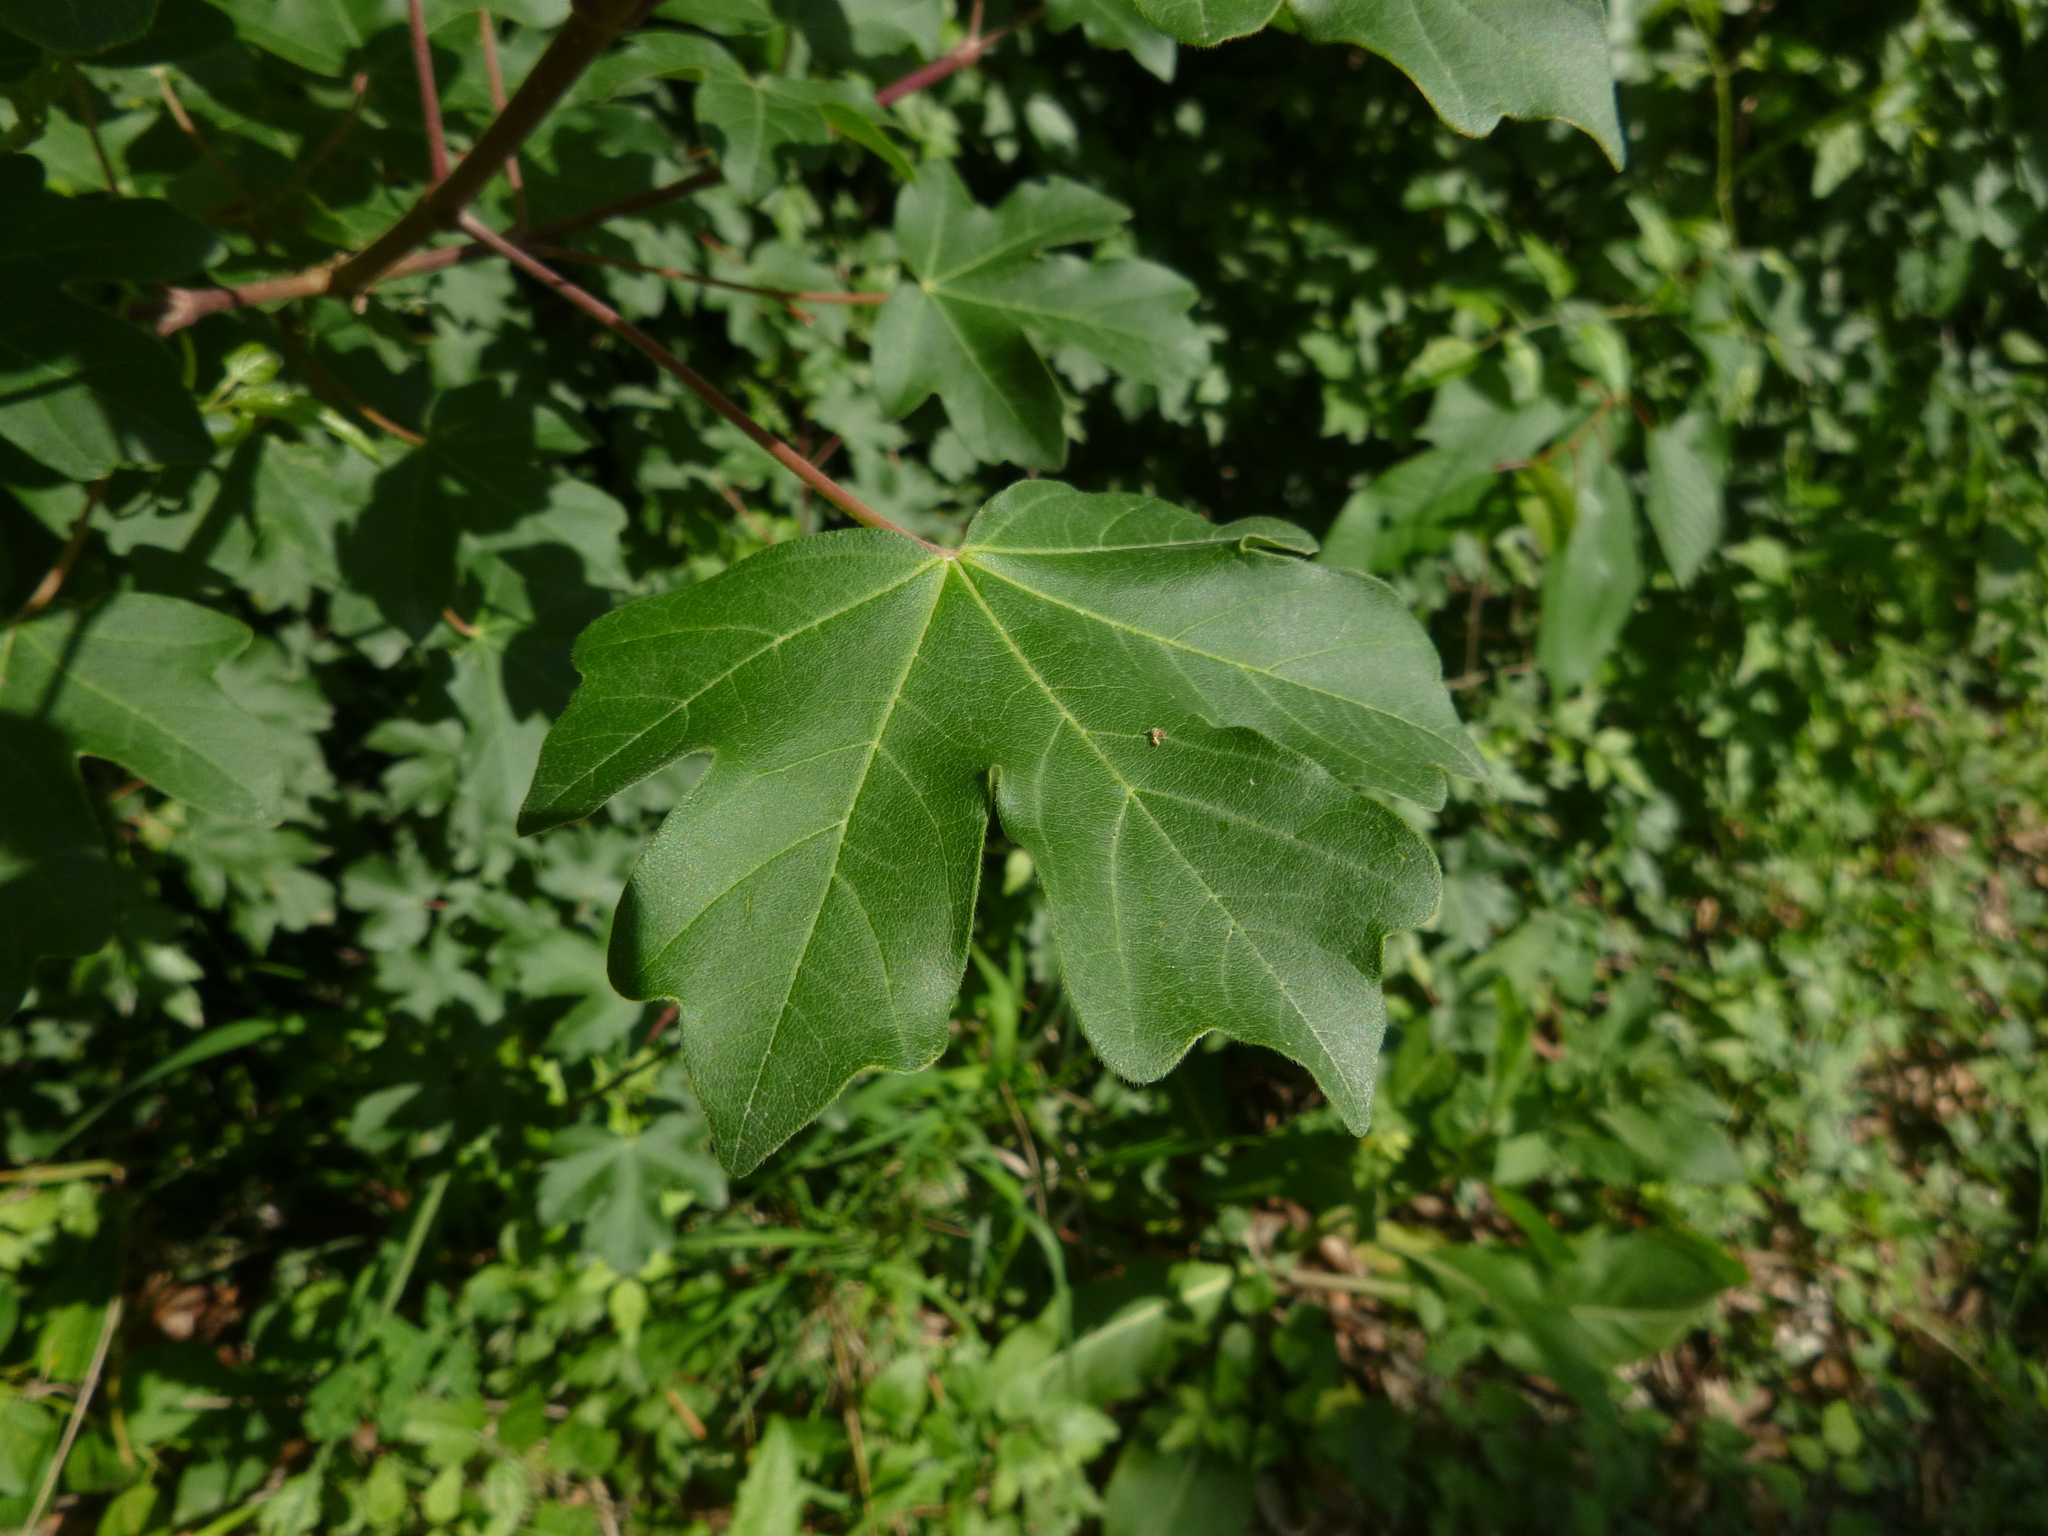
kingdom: Plantae
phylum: Tracheophyta
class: Magnoliopsida
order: Sapindales
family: Sapindaceae
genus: Acer
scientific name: Acer campestre
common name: Field maple
